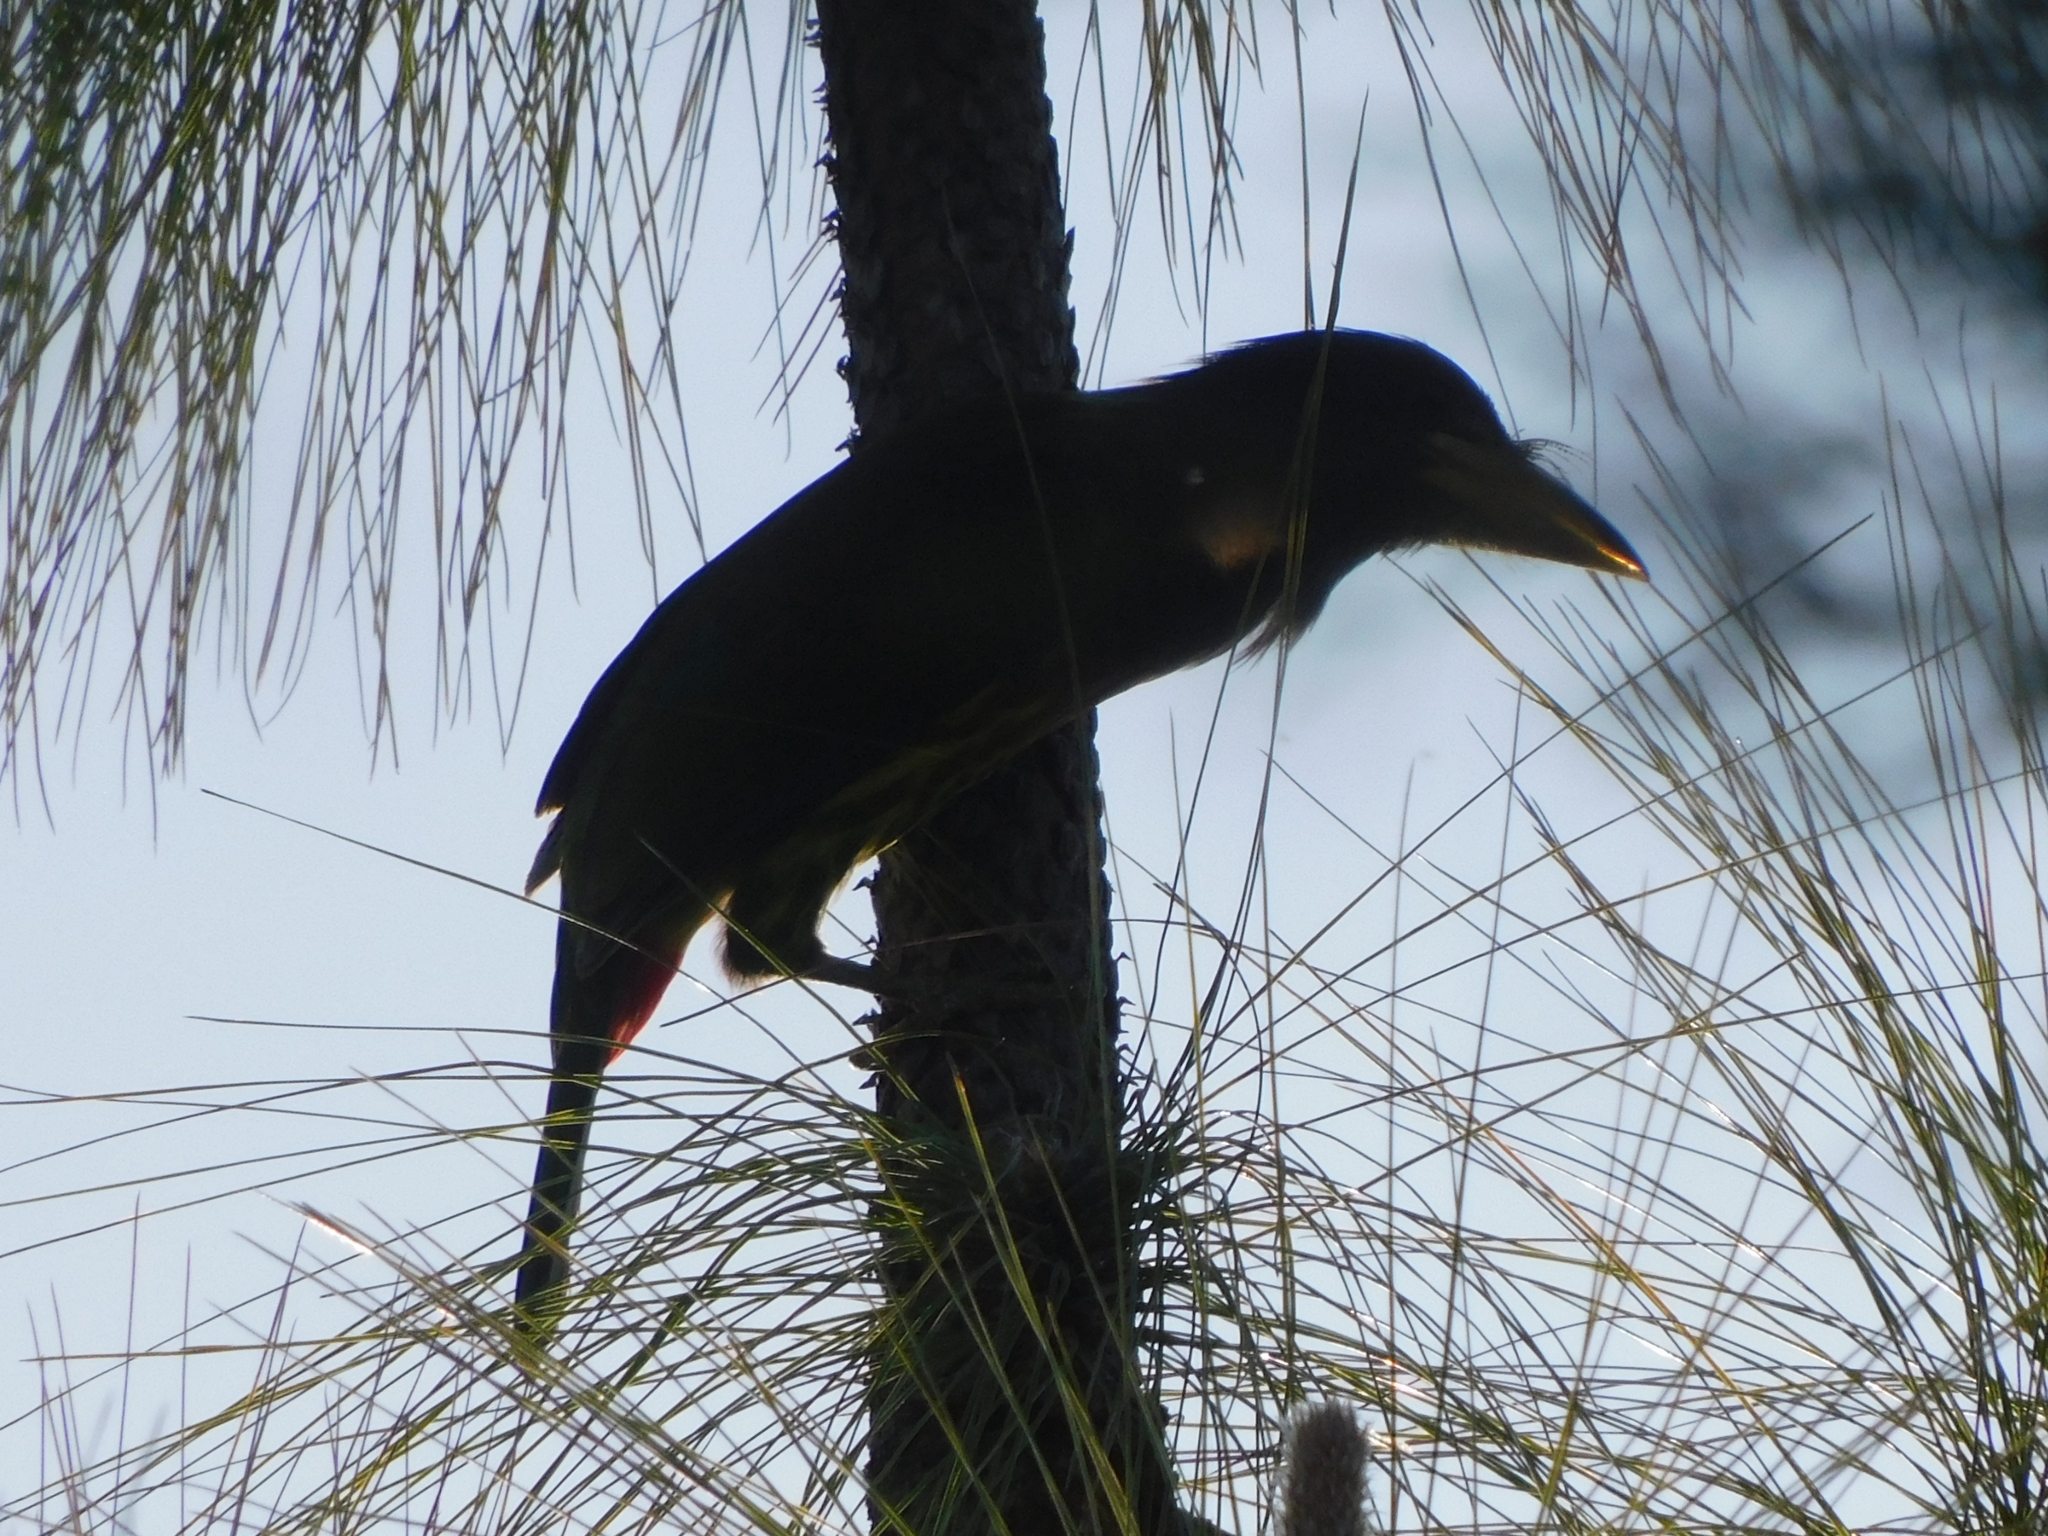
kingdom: Animalia
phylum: Chordata
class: Aves
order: Piciformes
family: Megalaimidae
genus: Psilopogon
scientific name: Psilopogon virens
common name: Great barbet
